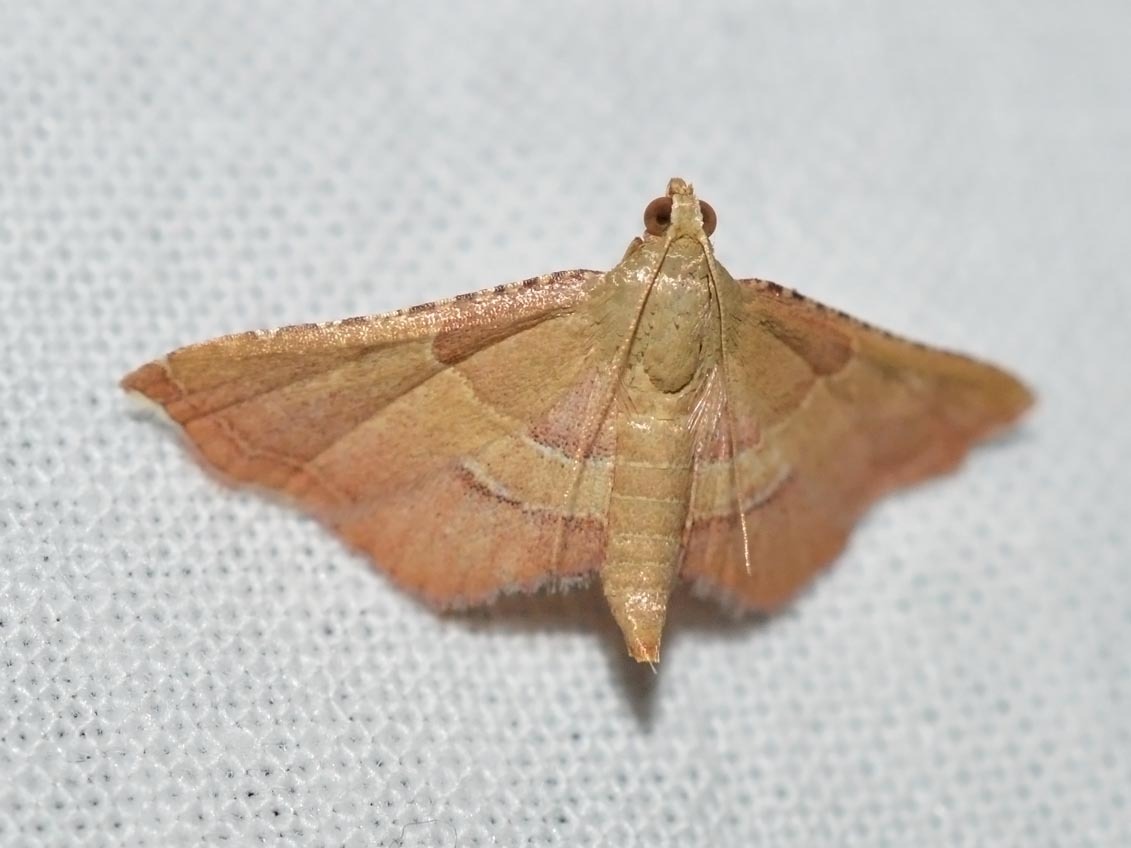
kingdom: Animalia
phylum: Arthropoda
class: Insecta
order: Lepidoptera
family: Pyralidae
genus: Endotricha
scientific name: Endotricha flammealis
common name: Rosy tabby
